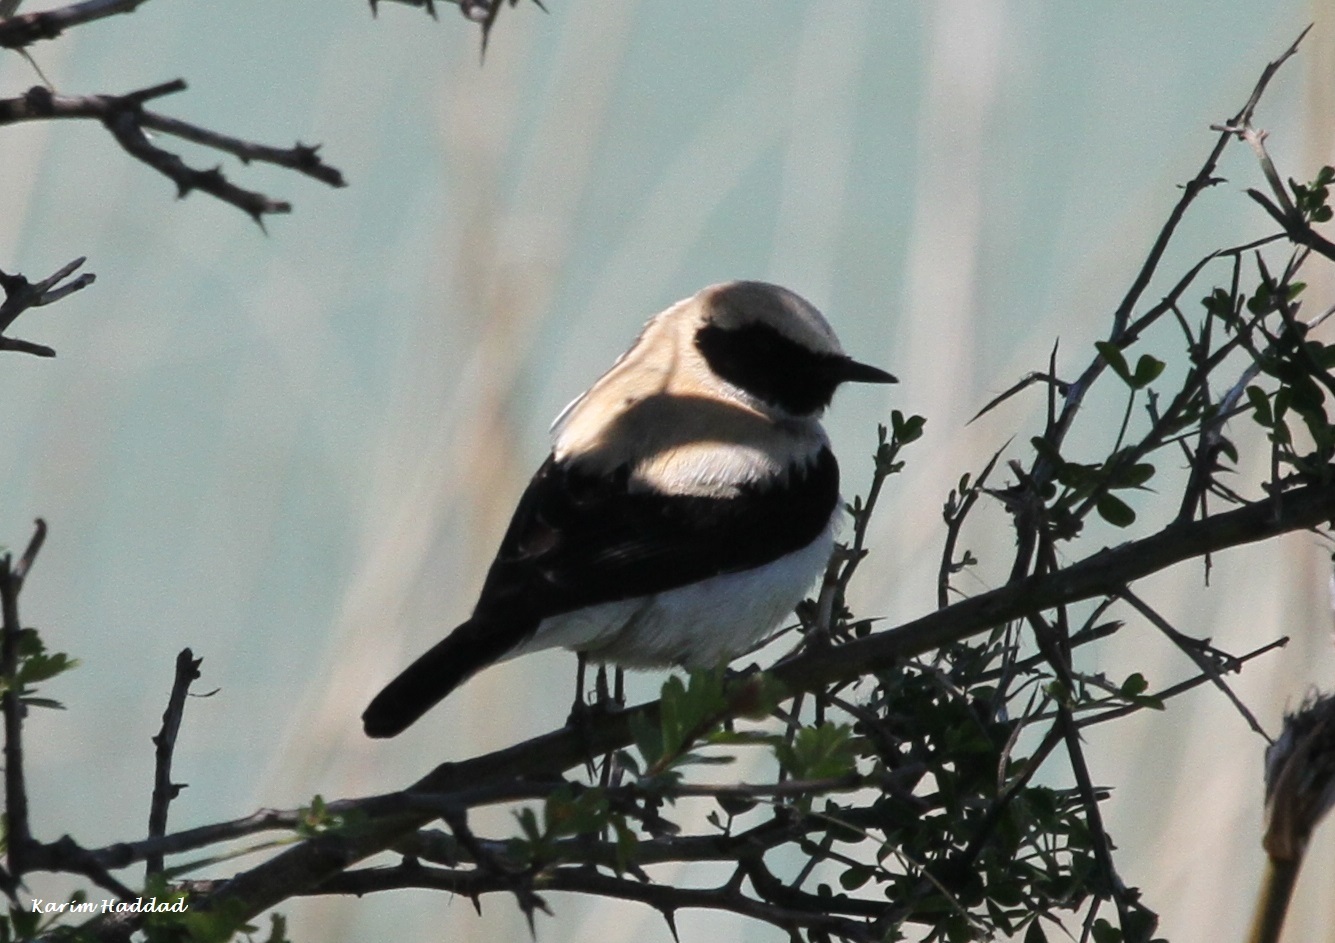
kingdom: Animalia
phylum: Chordata
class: Aves
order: Passeriformes
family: Muscicapidae
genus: Oenanthe
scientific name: Oenanthe hispanica
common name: Black-eared wheatear
